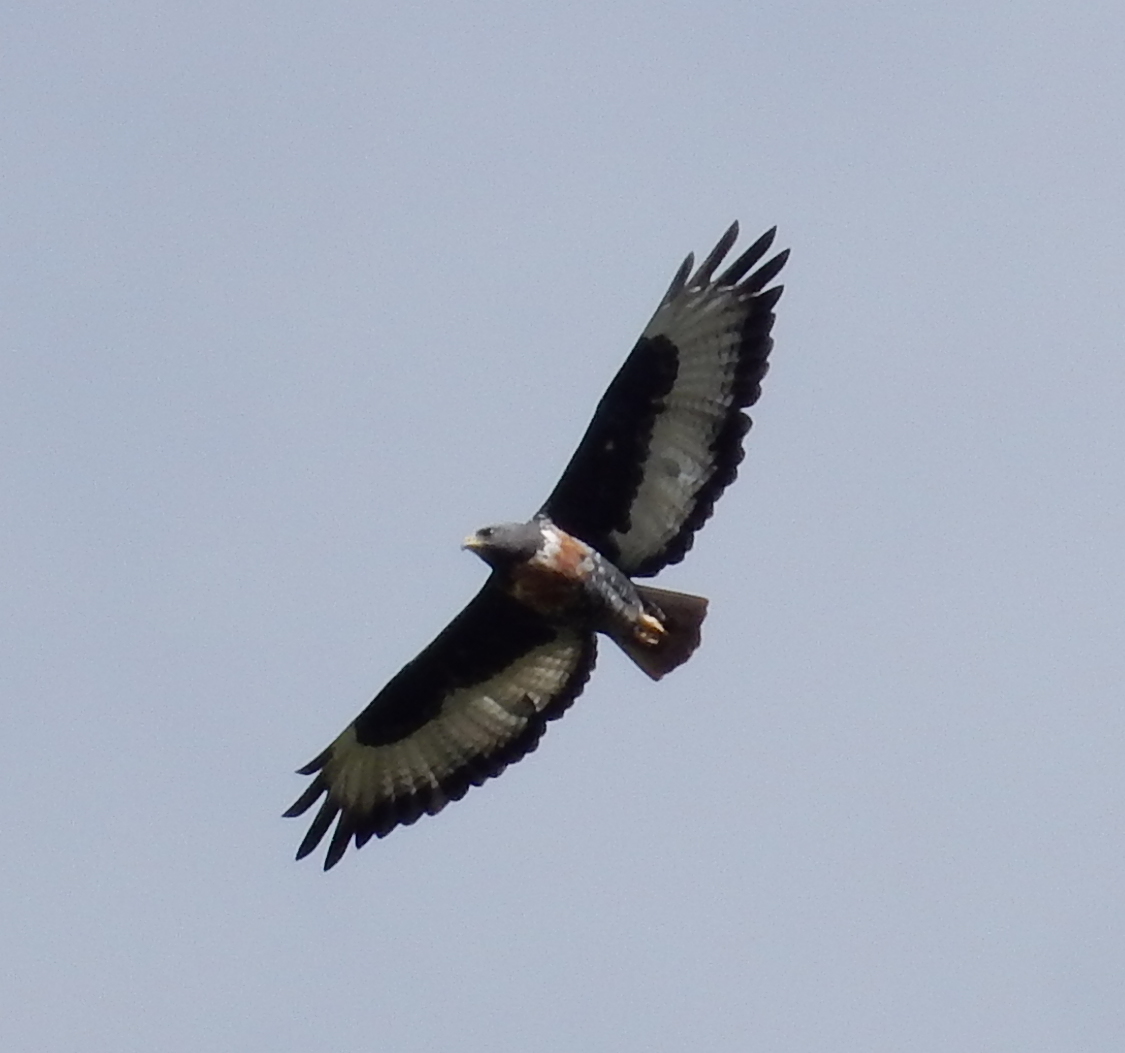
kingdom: Animalia
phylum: Chordata
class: Aves
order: Accipitriformes
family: Accipitridae
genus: Buteo
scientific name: Buteo rufofuscus
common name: Jackal buzzard
